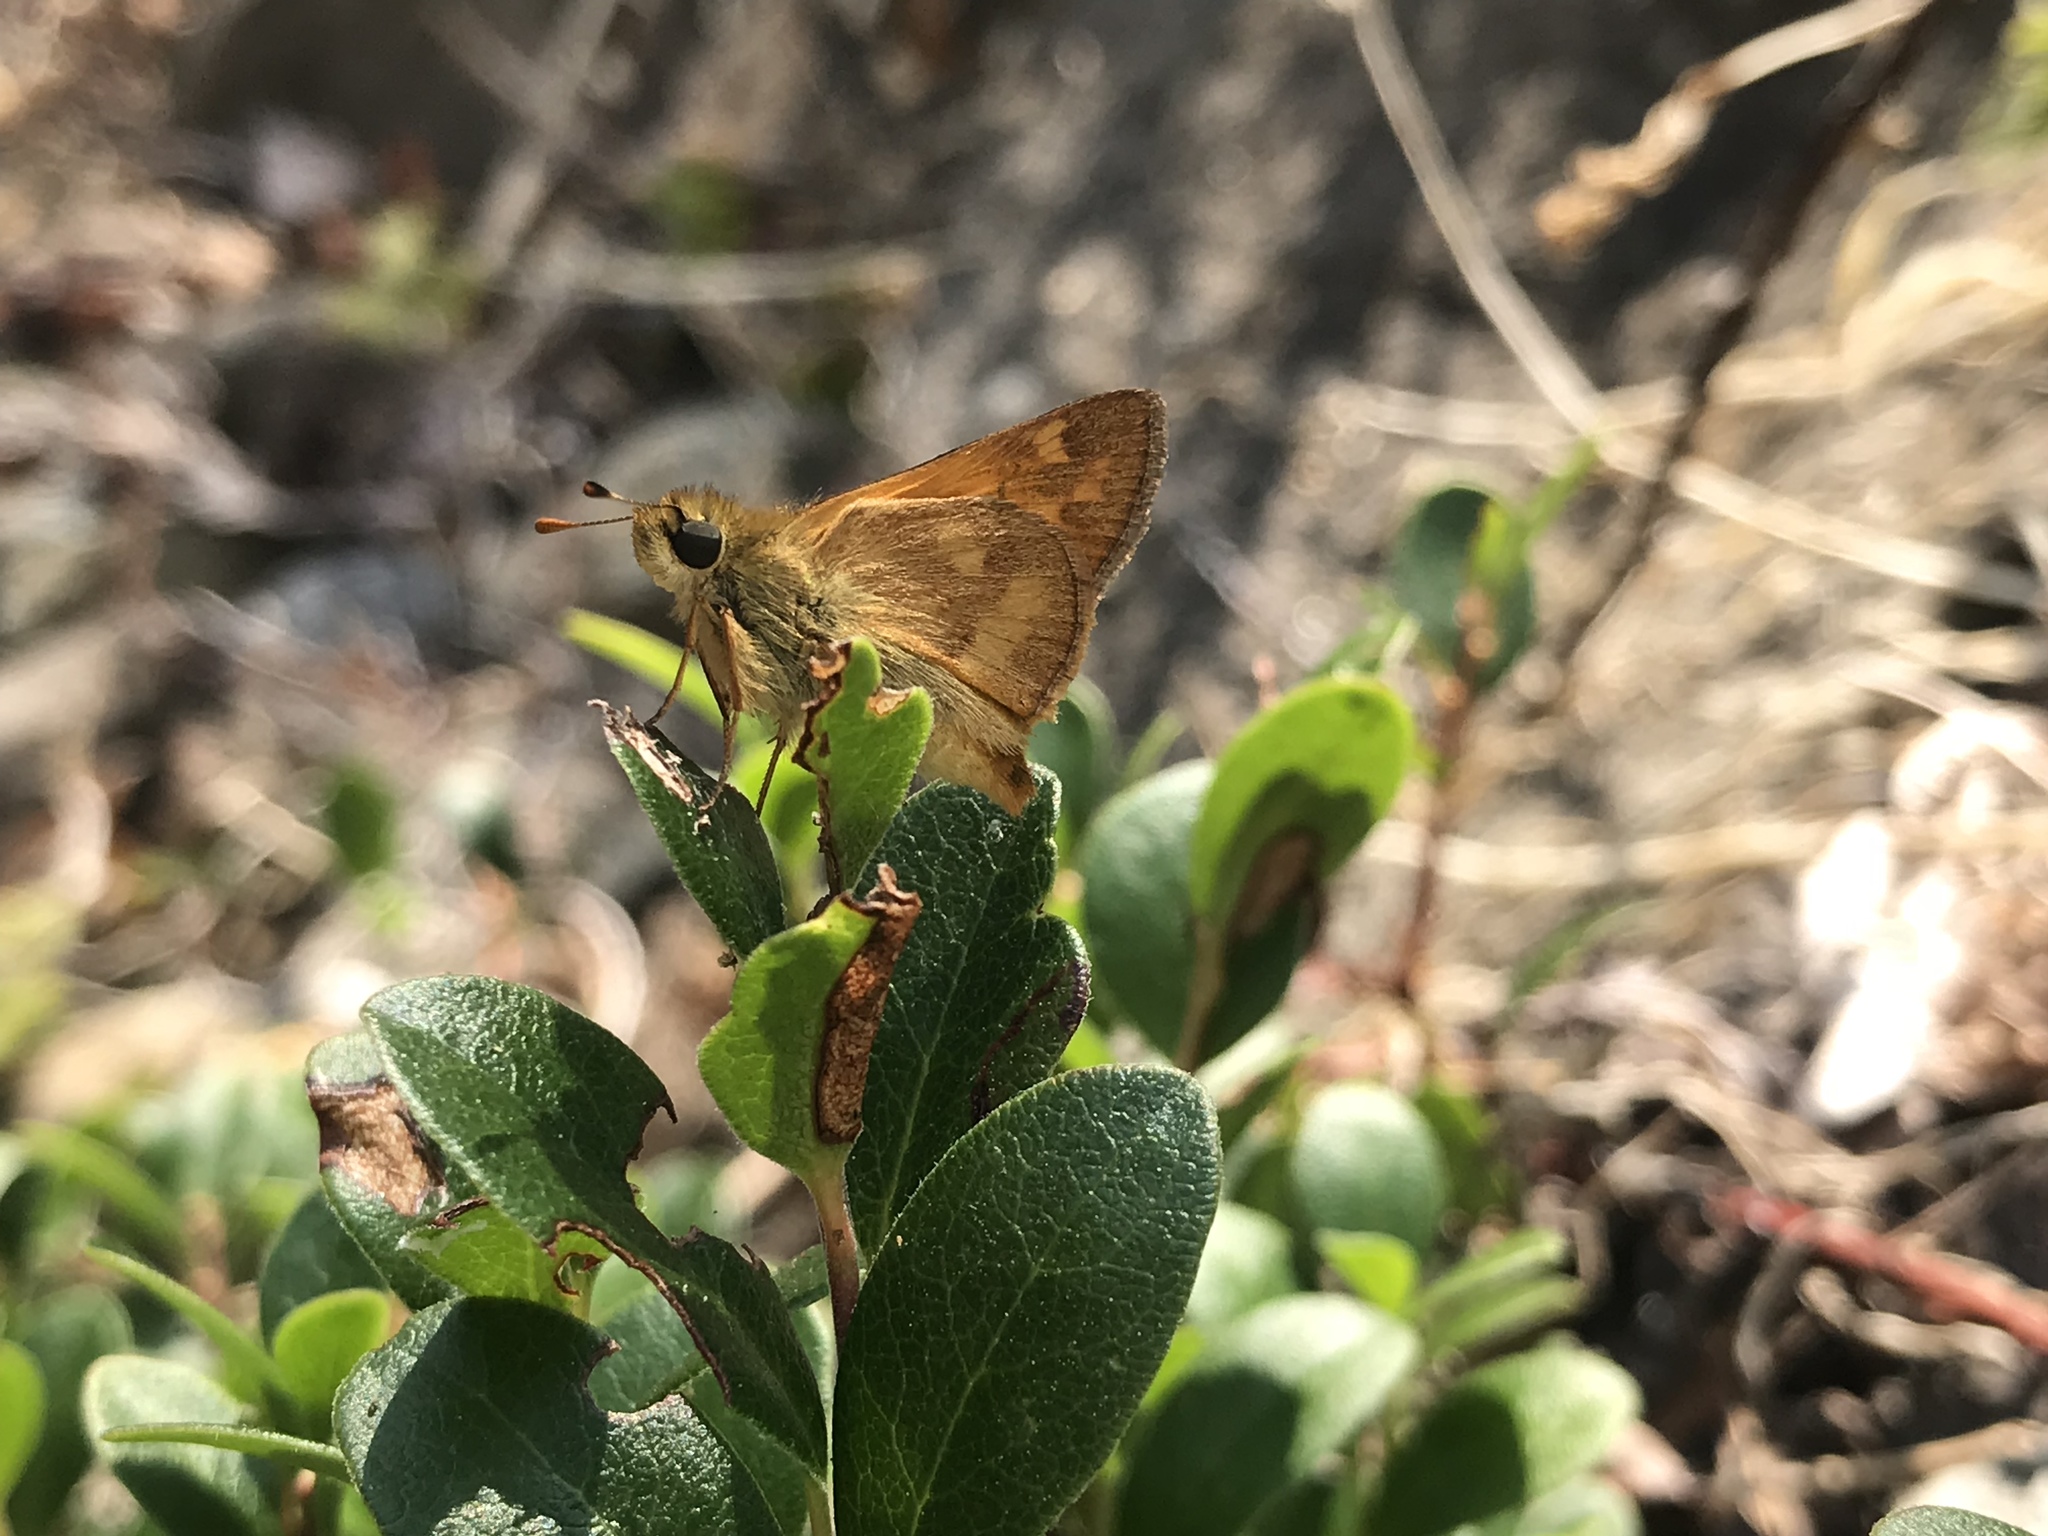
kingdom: Animalia
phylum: Arthropoda
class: Insecta
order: Lepidoptera
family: Hesperiidae
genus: Ochlodes
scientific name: Ochlodes sylvanoides
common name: Woodland skipper
